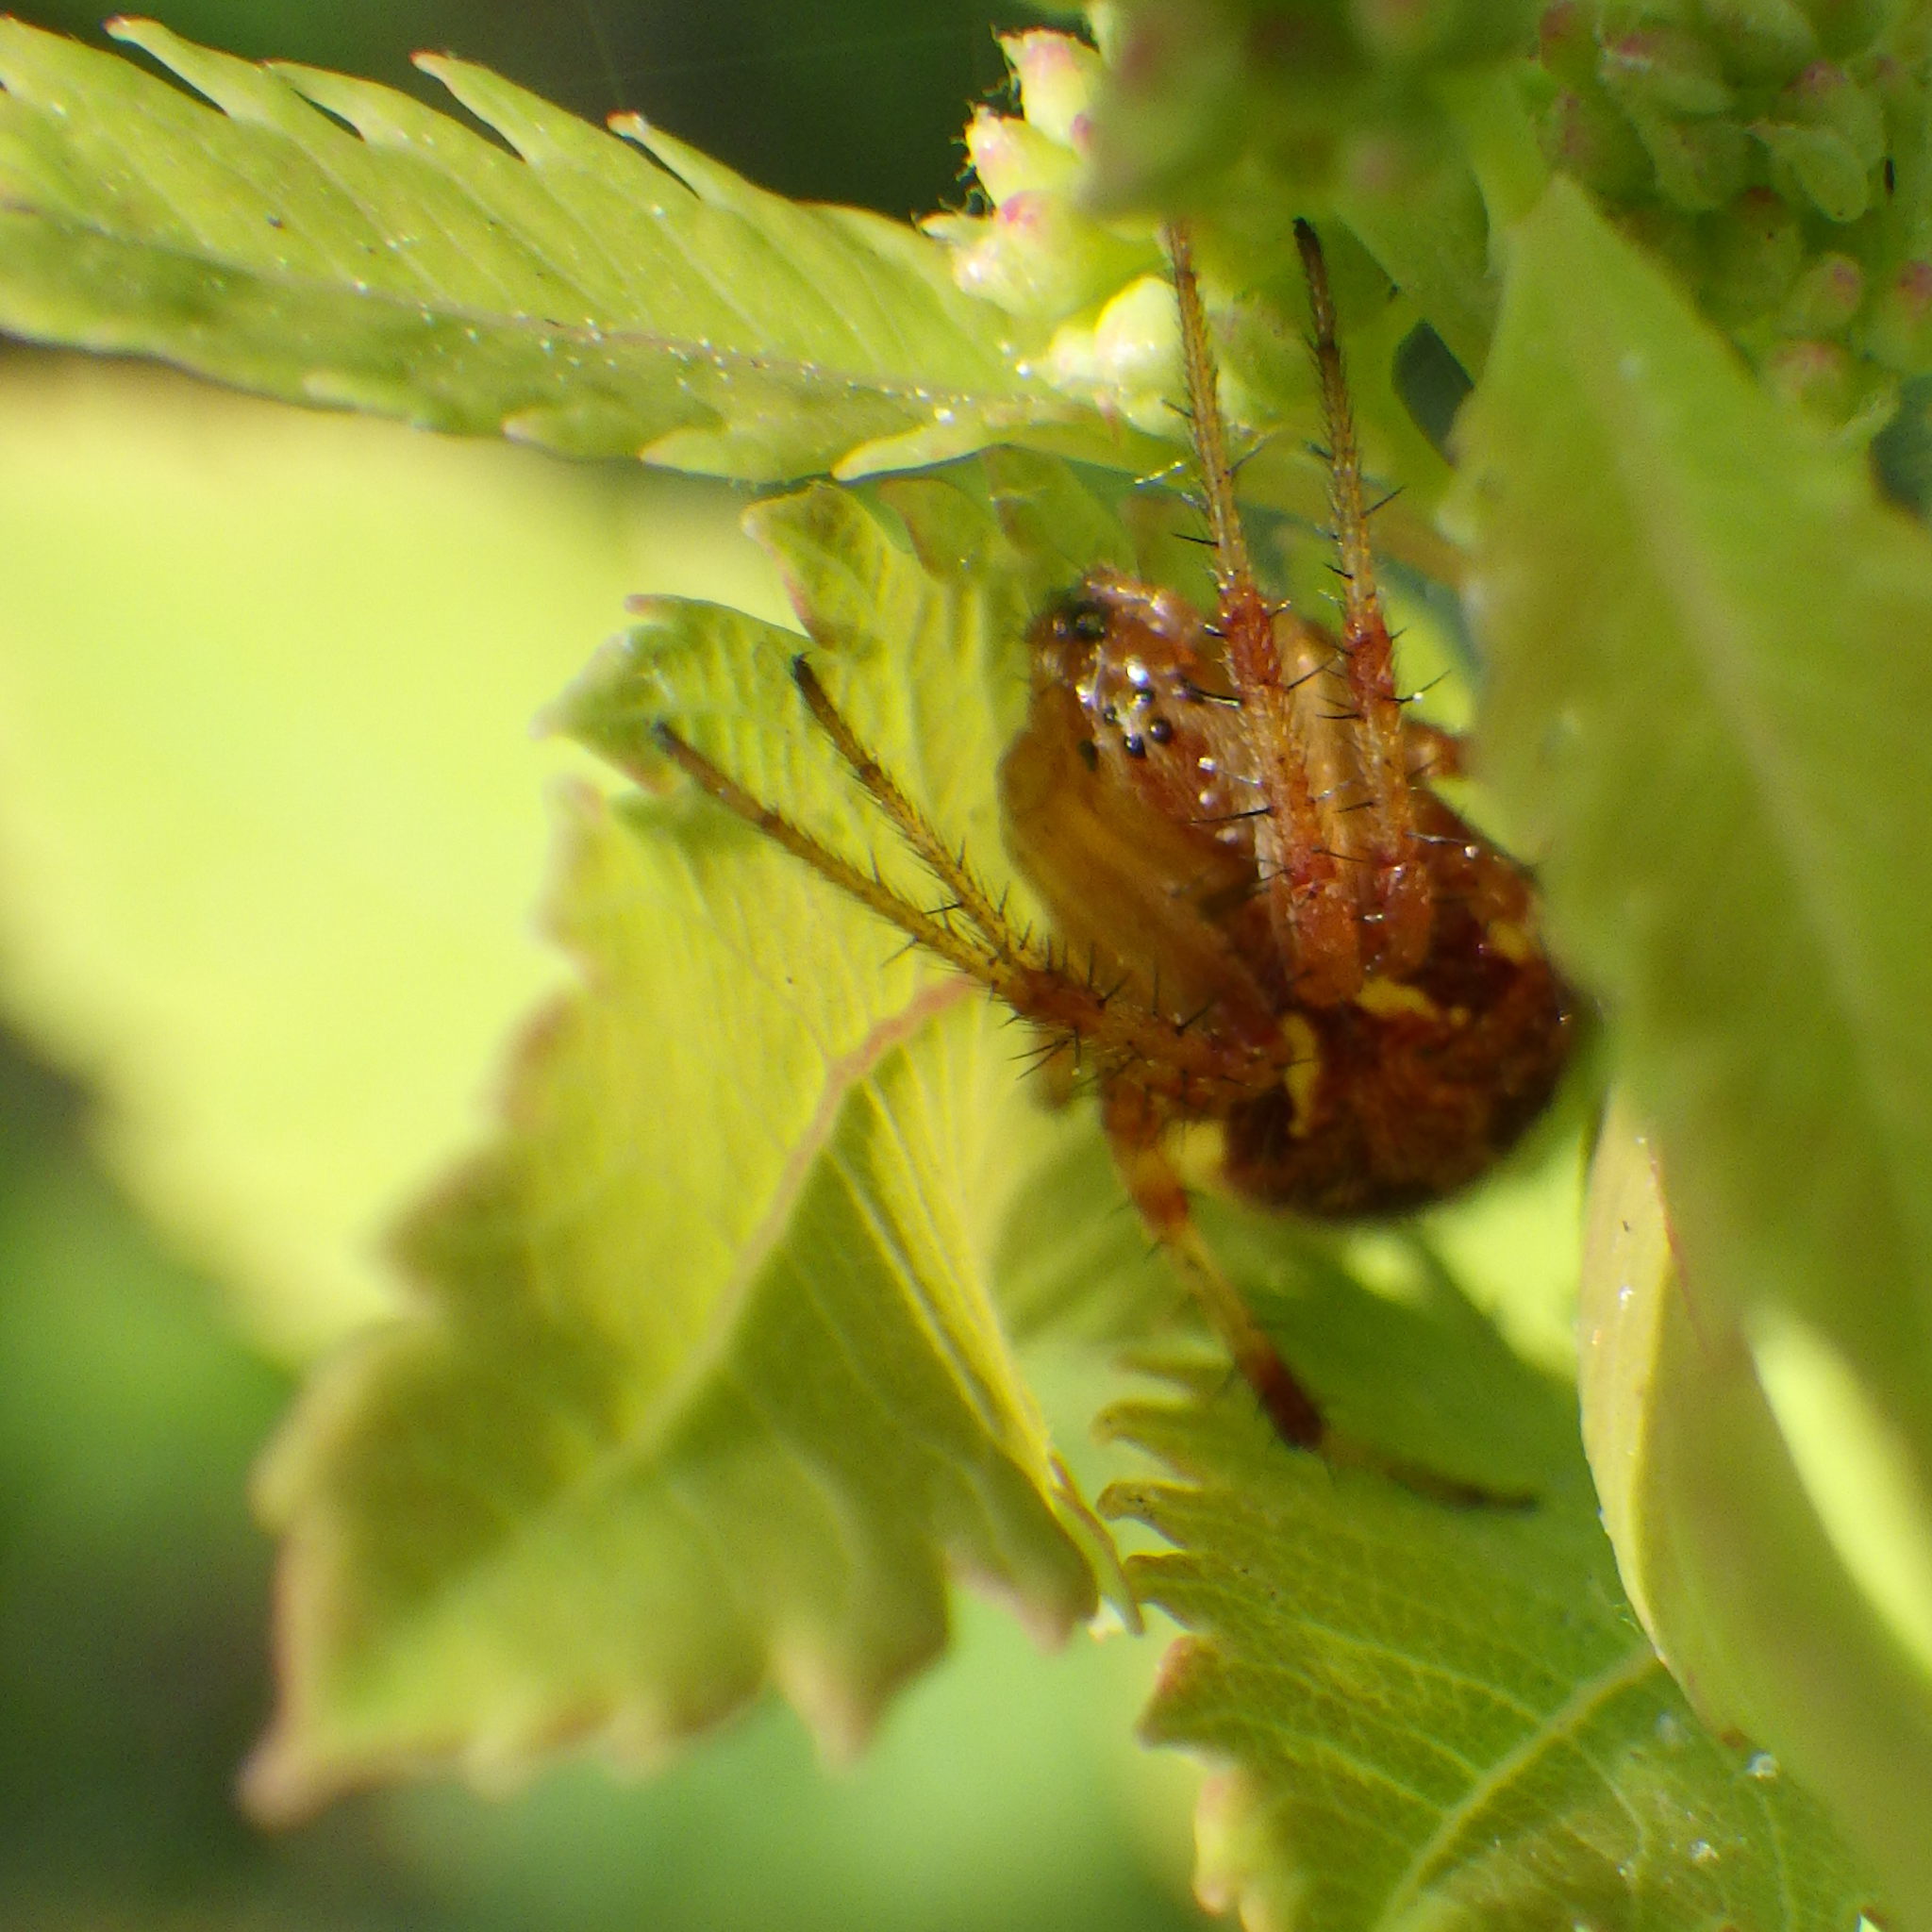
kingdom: Animalia
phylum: Arthropoda
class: Arachnida
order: Araneae
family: Araneidae
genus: Neoscona
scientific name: Neoscona arabesca
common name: Orb weavers
